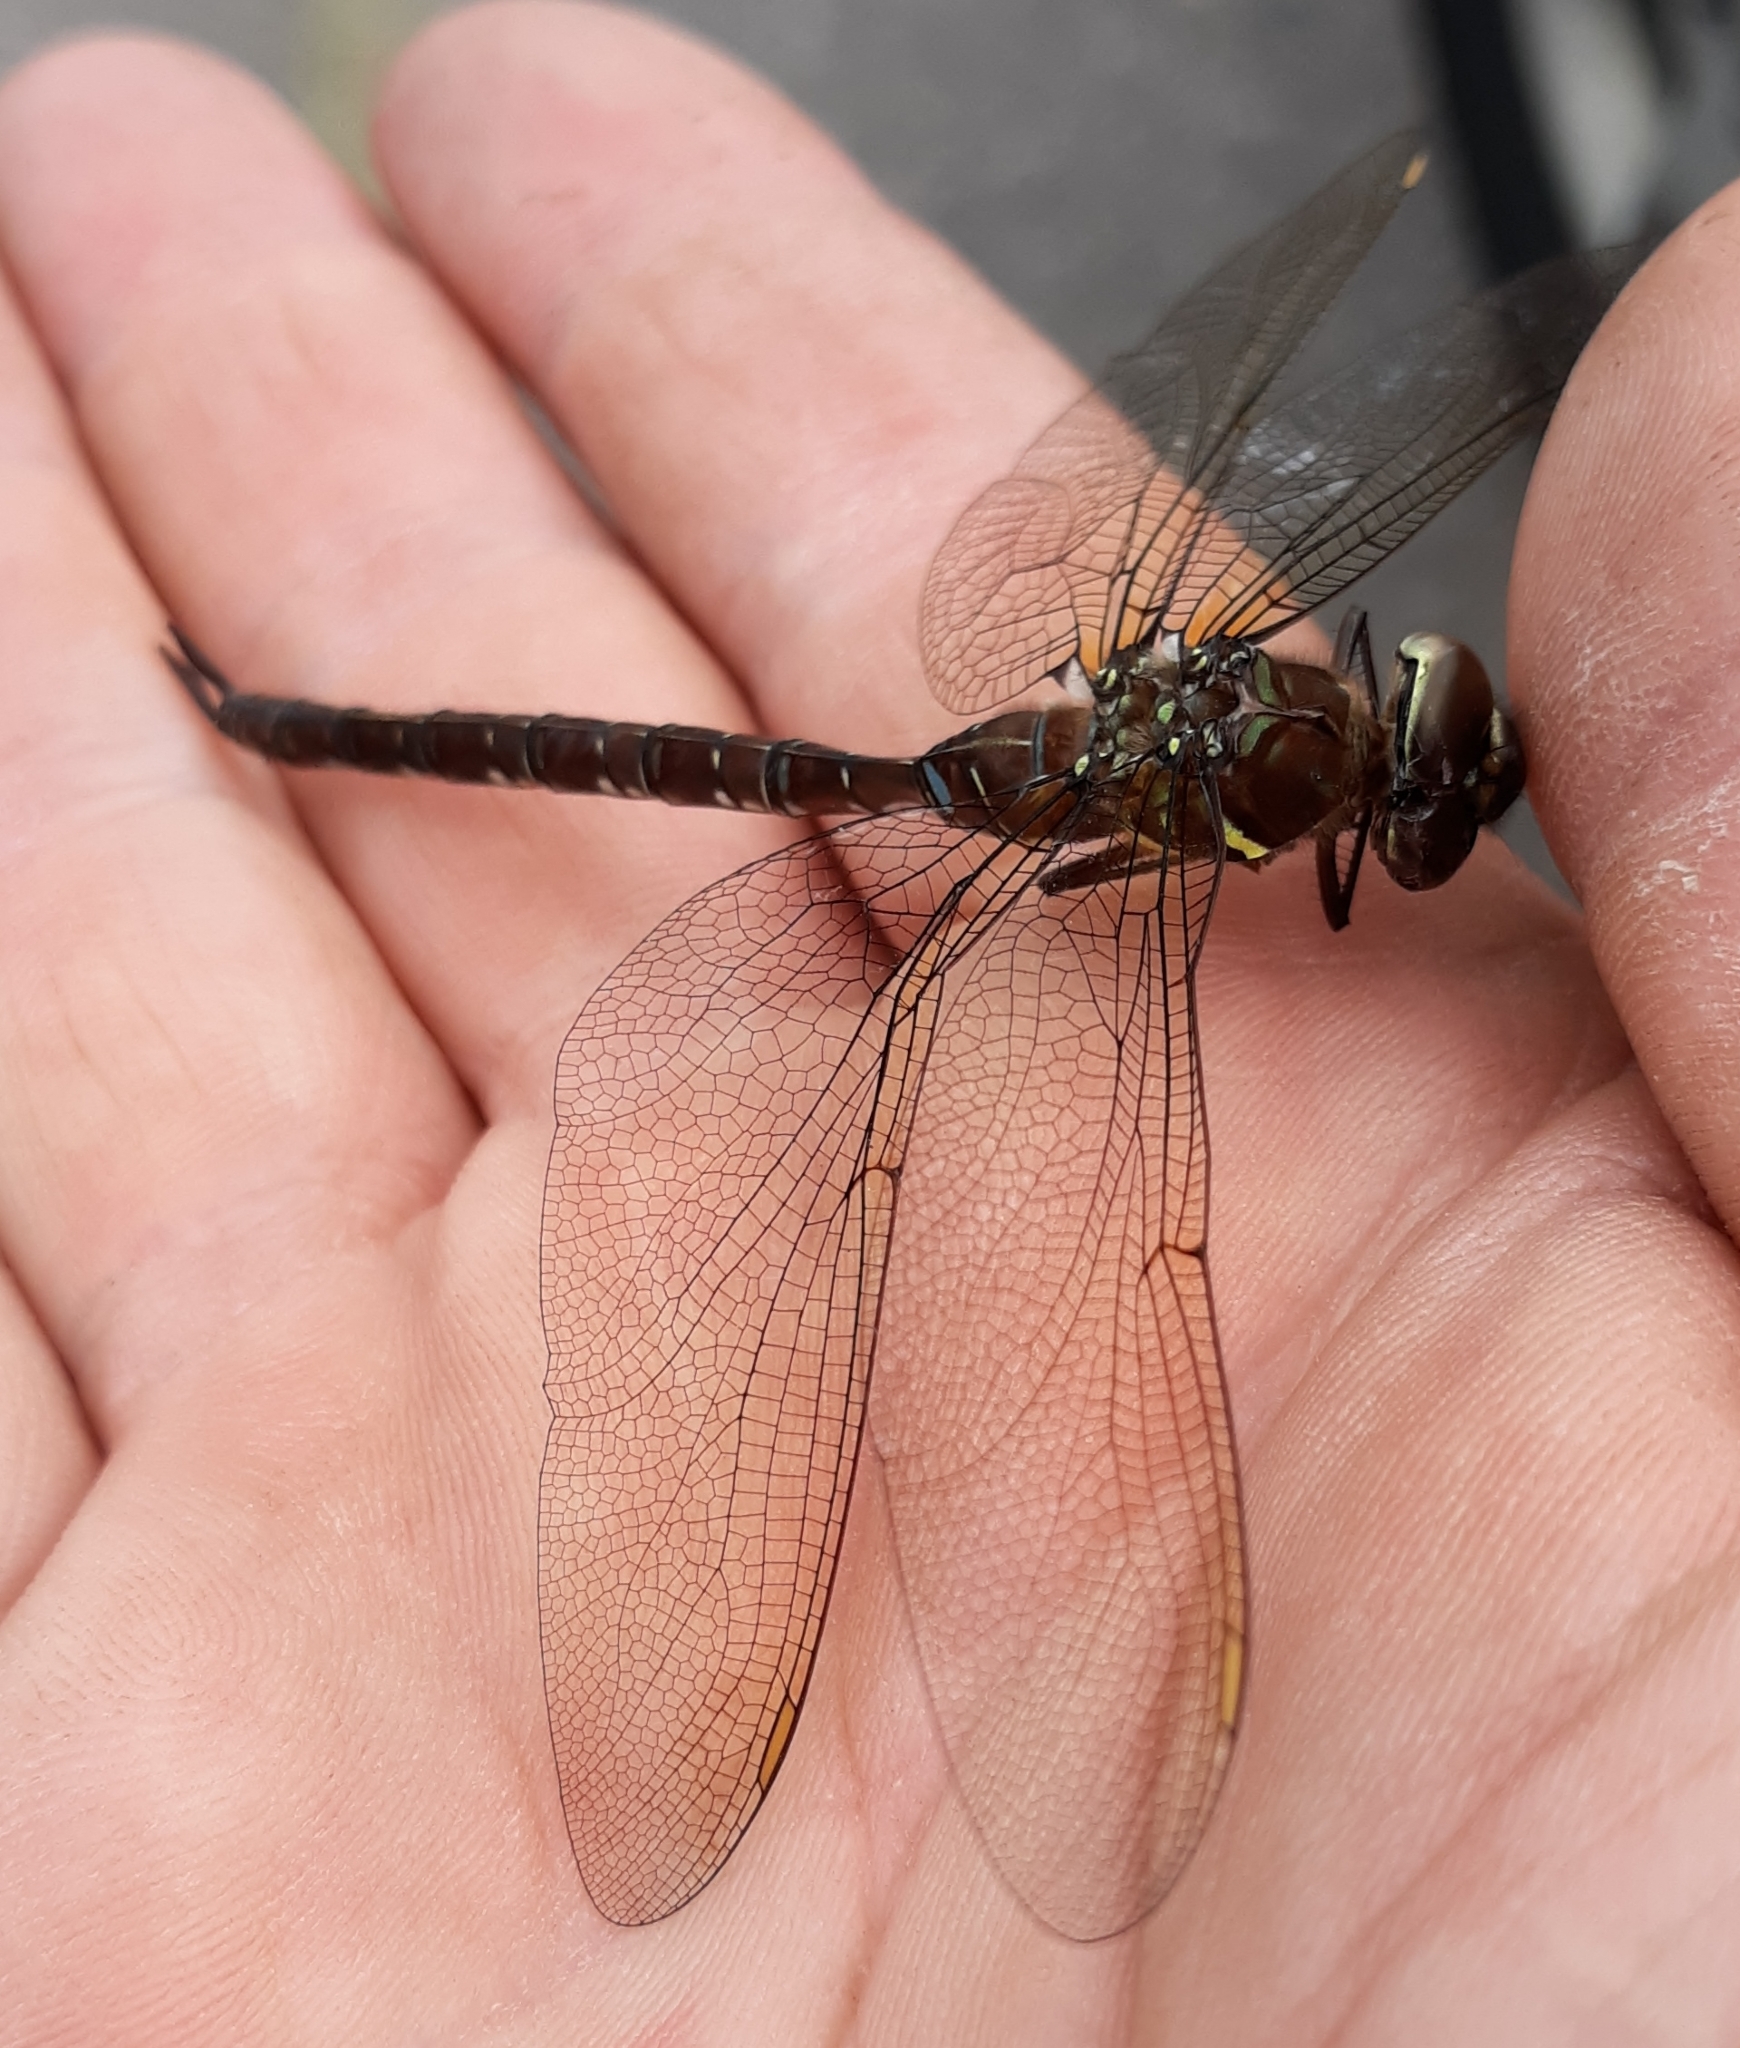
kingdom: Animalia
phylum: Arthropoda
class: Insecta
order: Odonata
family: Aeshnidae
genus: Aeshna
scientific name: Aeshna umbrosa
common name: Shadow darner
